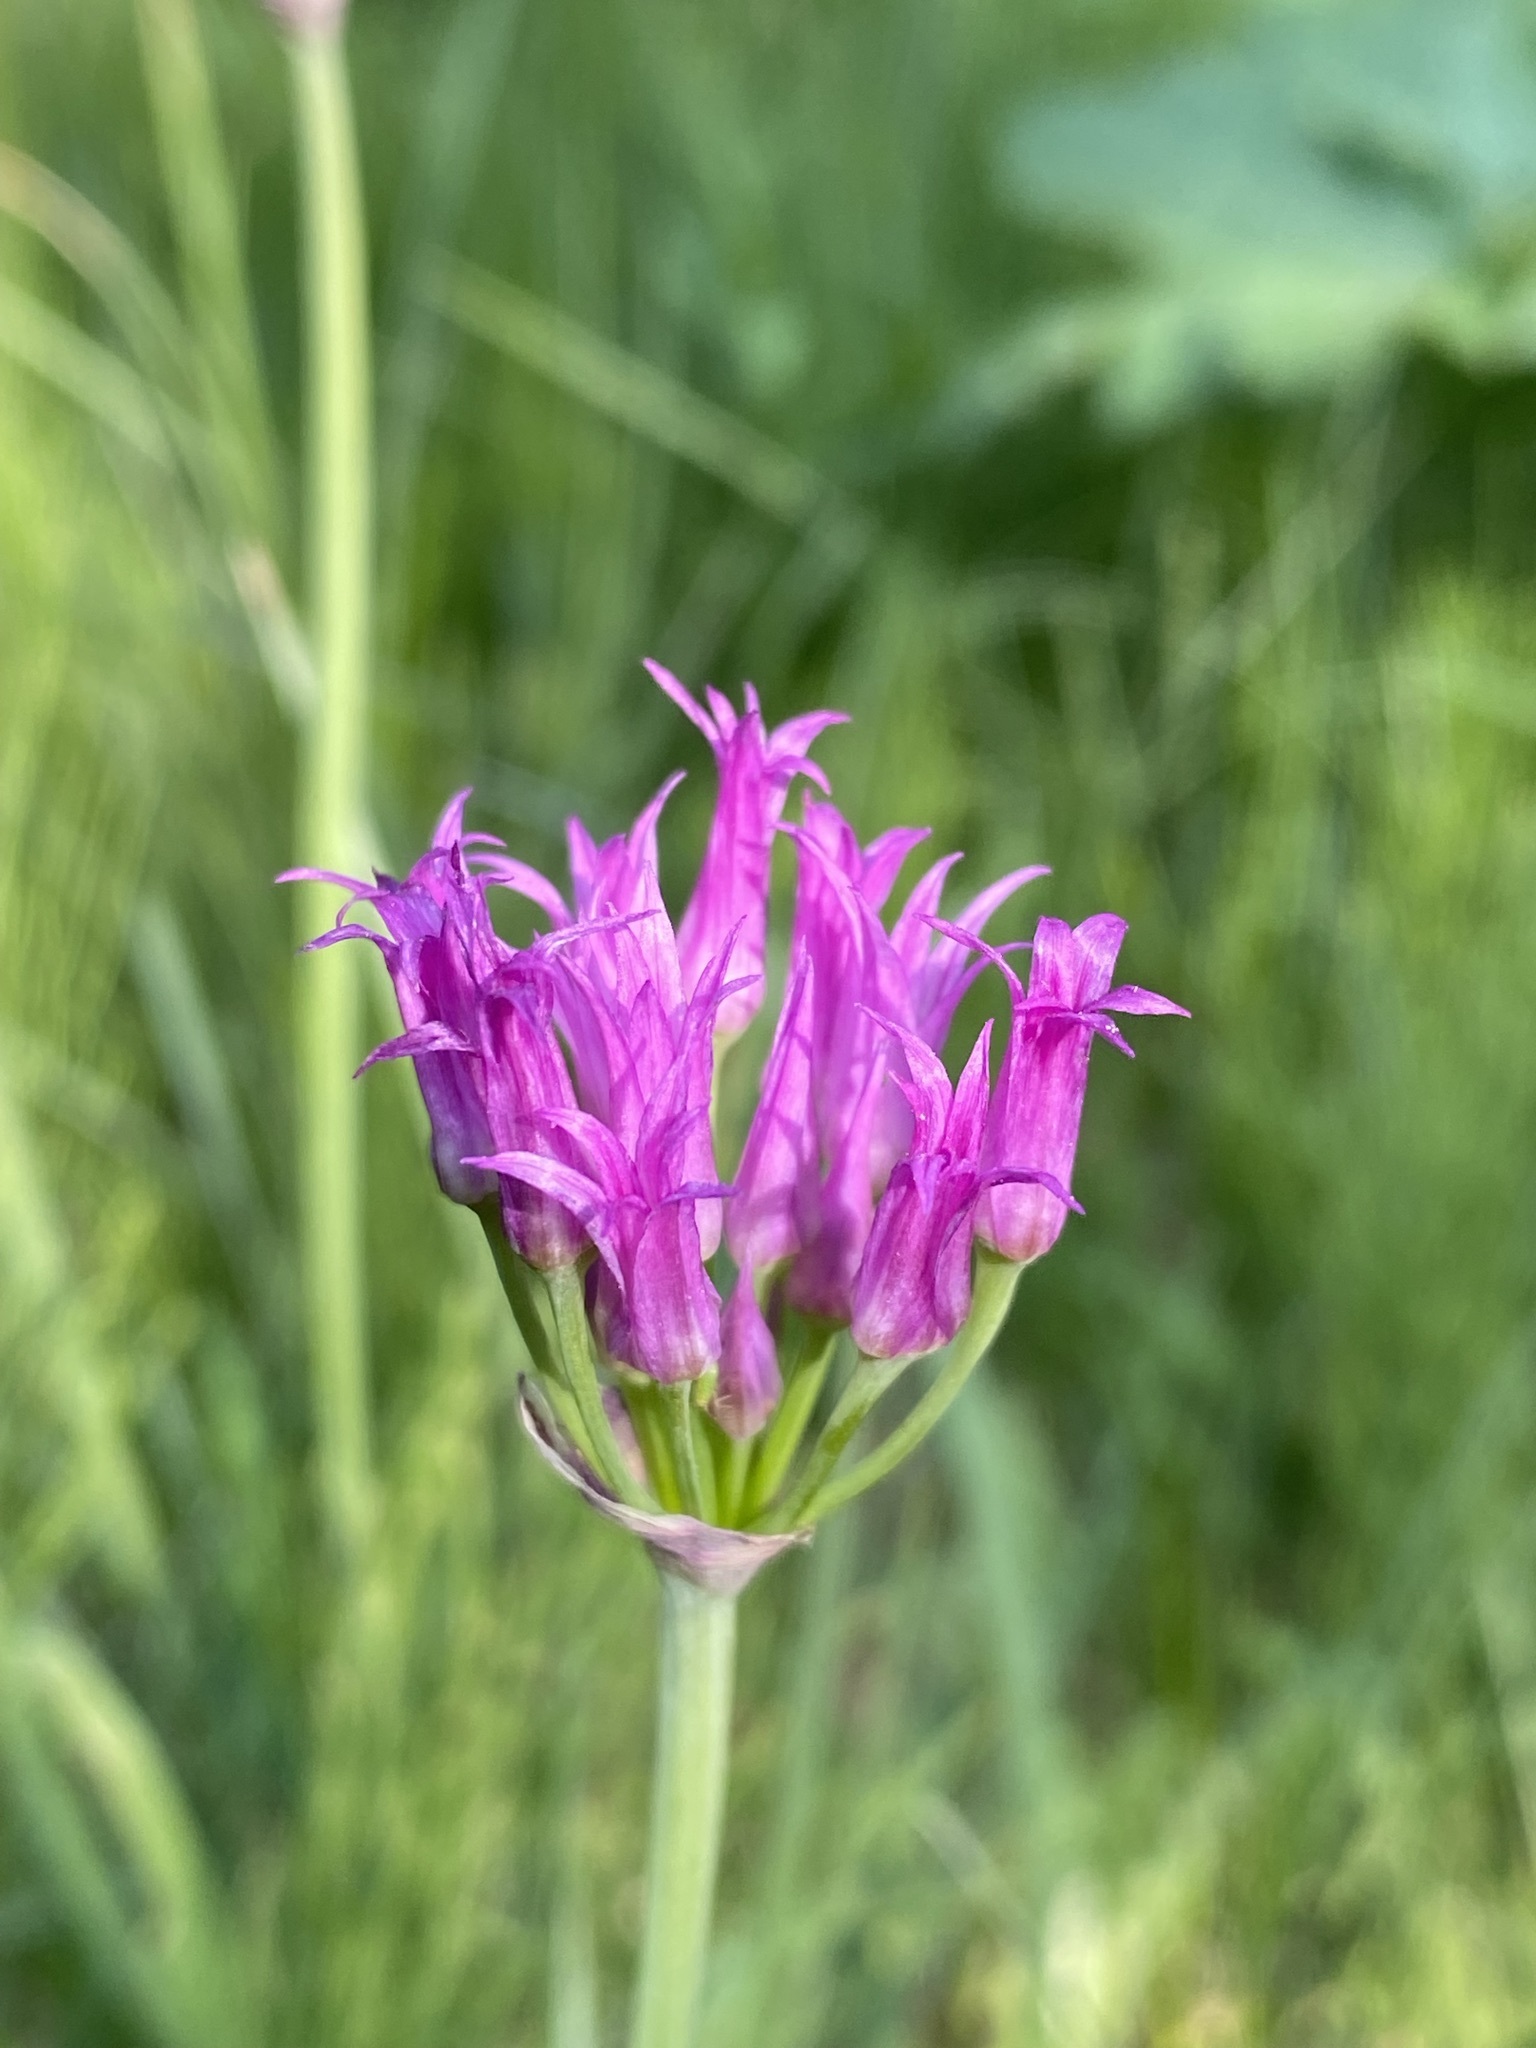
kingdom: Plantae
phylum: Tracheophyta
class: Liliopsida
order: Asparagales
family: Amaryllidaceae
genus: Allium
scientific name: Allium brevistylum
